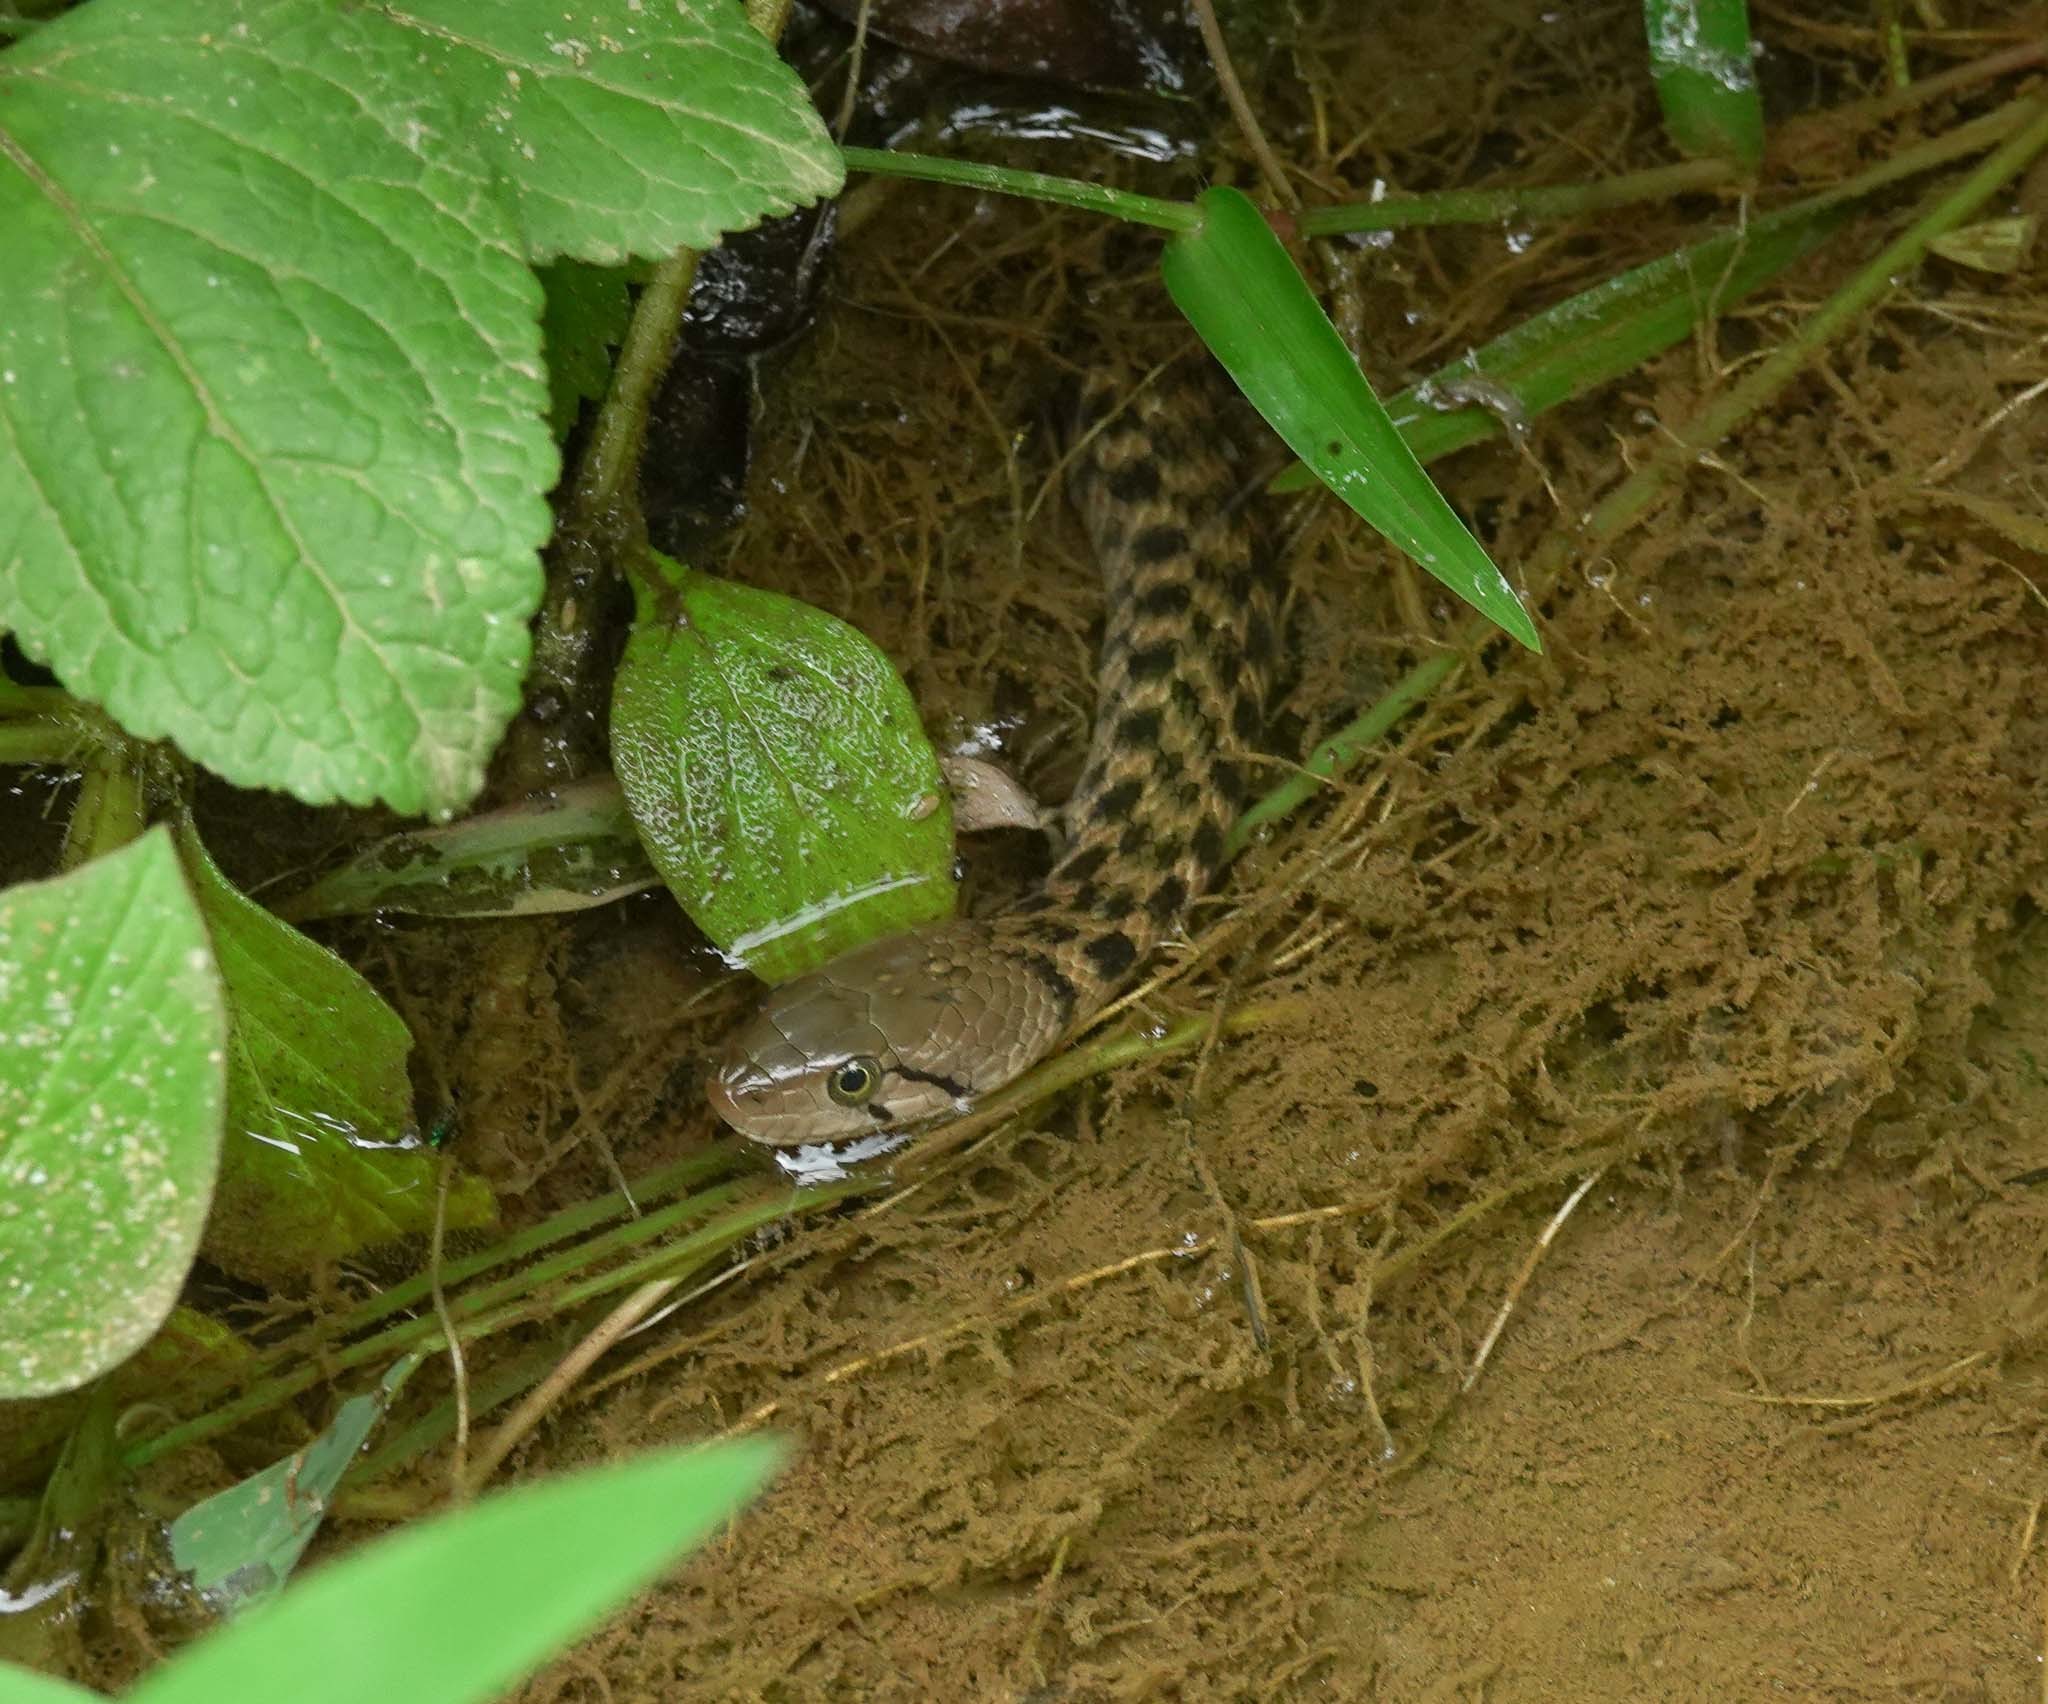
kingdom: Animalia
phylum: Chordata
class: Squamata
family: Colubridae
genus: Fowlea
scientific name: Fowlea piscator
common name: Asiatic water snake
